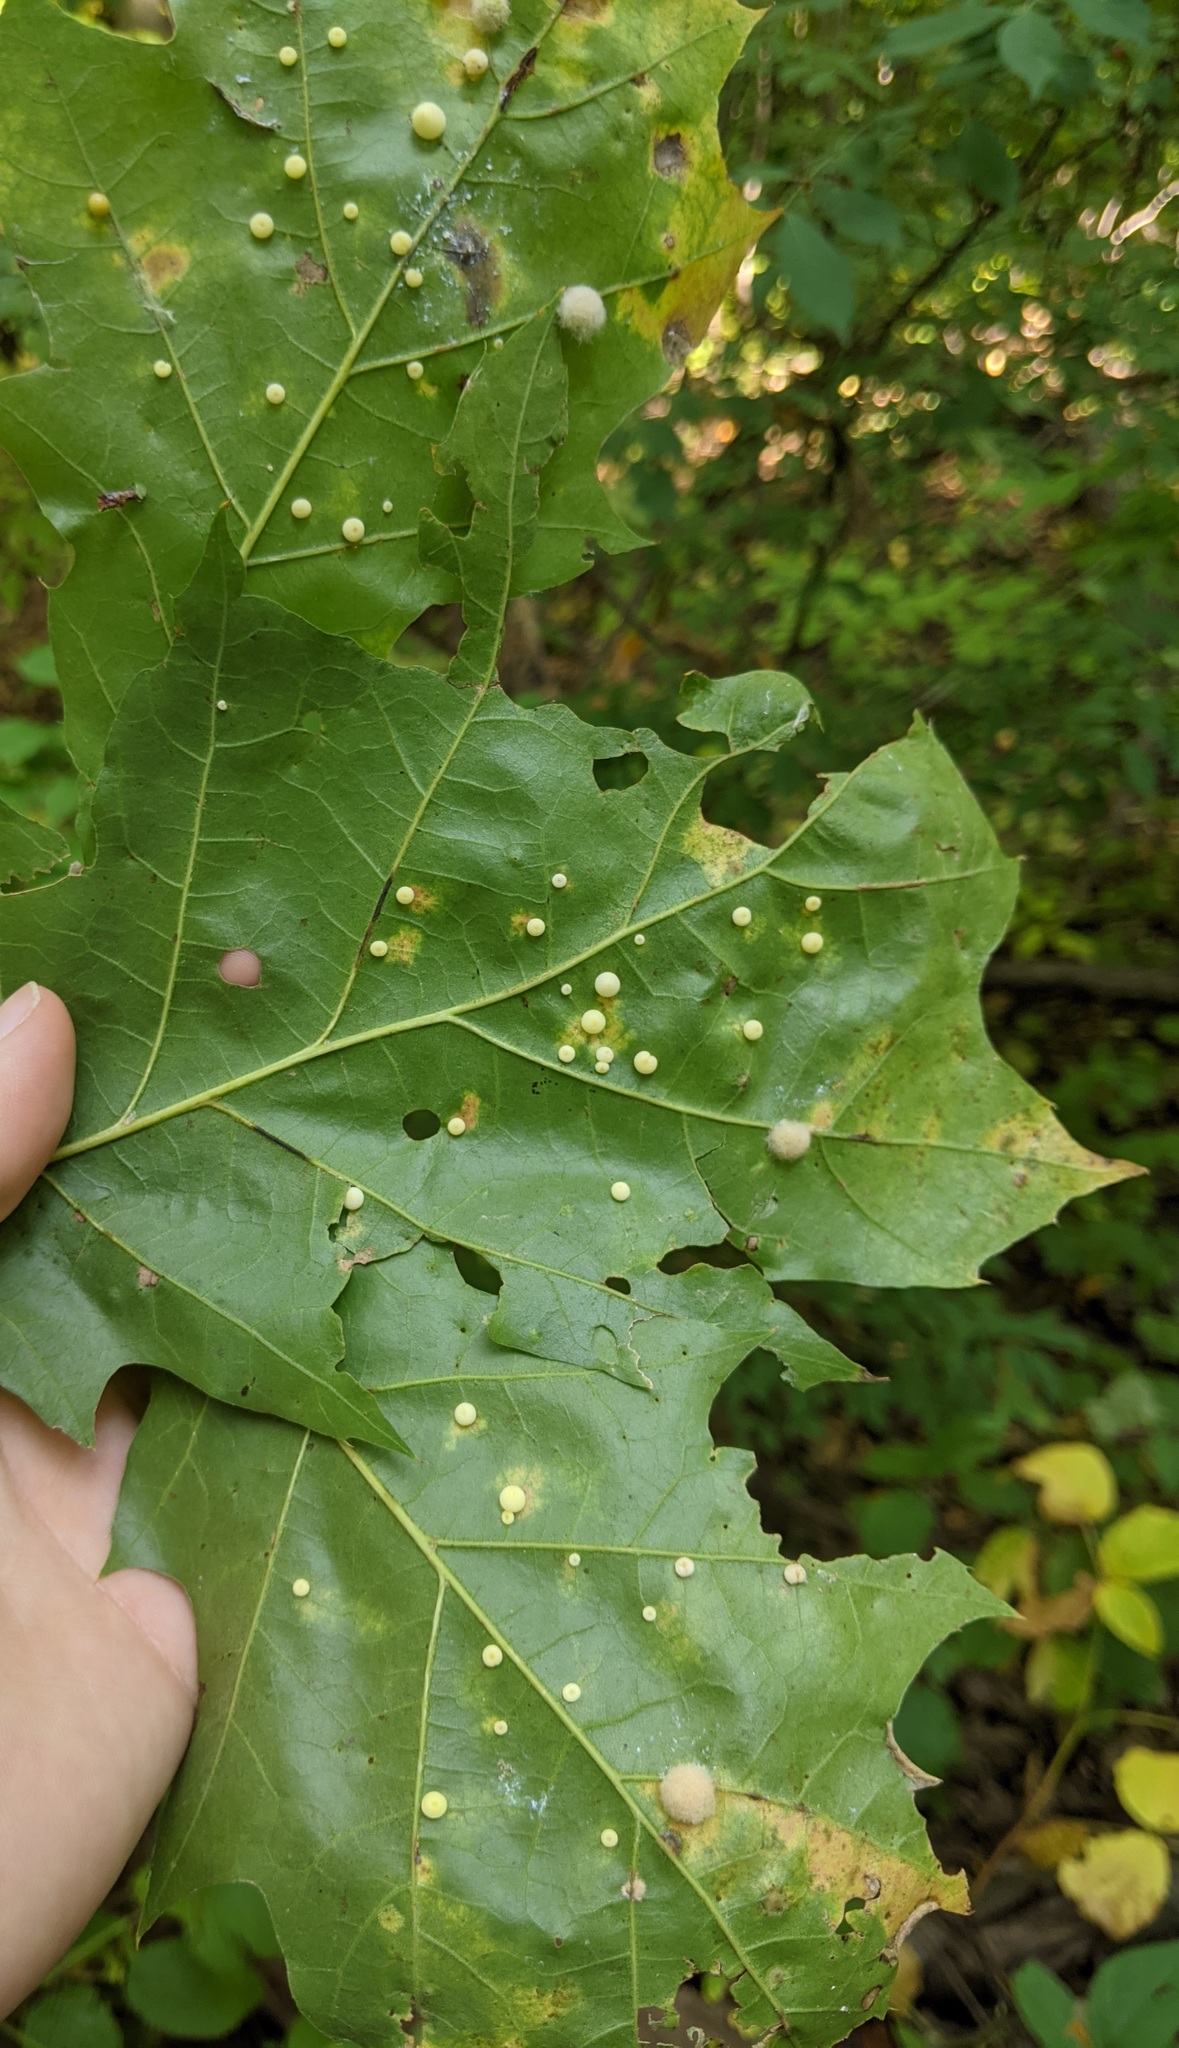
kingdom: Animalia
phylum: Arthropoda
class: Insecta
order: Hymenoptera
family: Cynipidae
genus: Zopheroteras
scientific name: Zopheroteras
